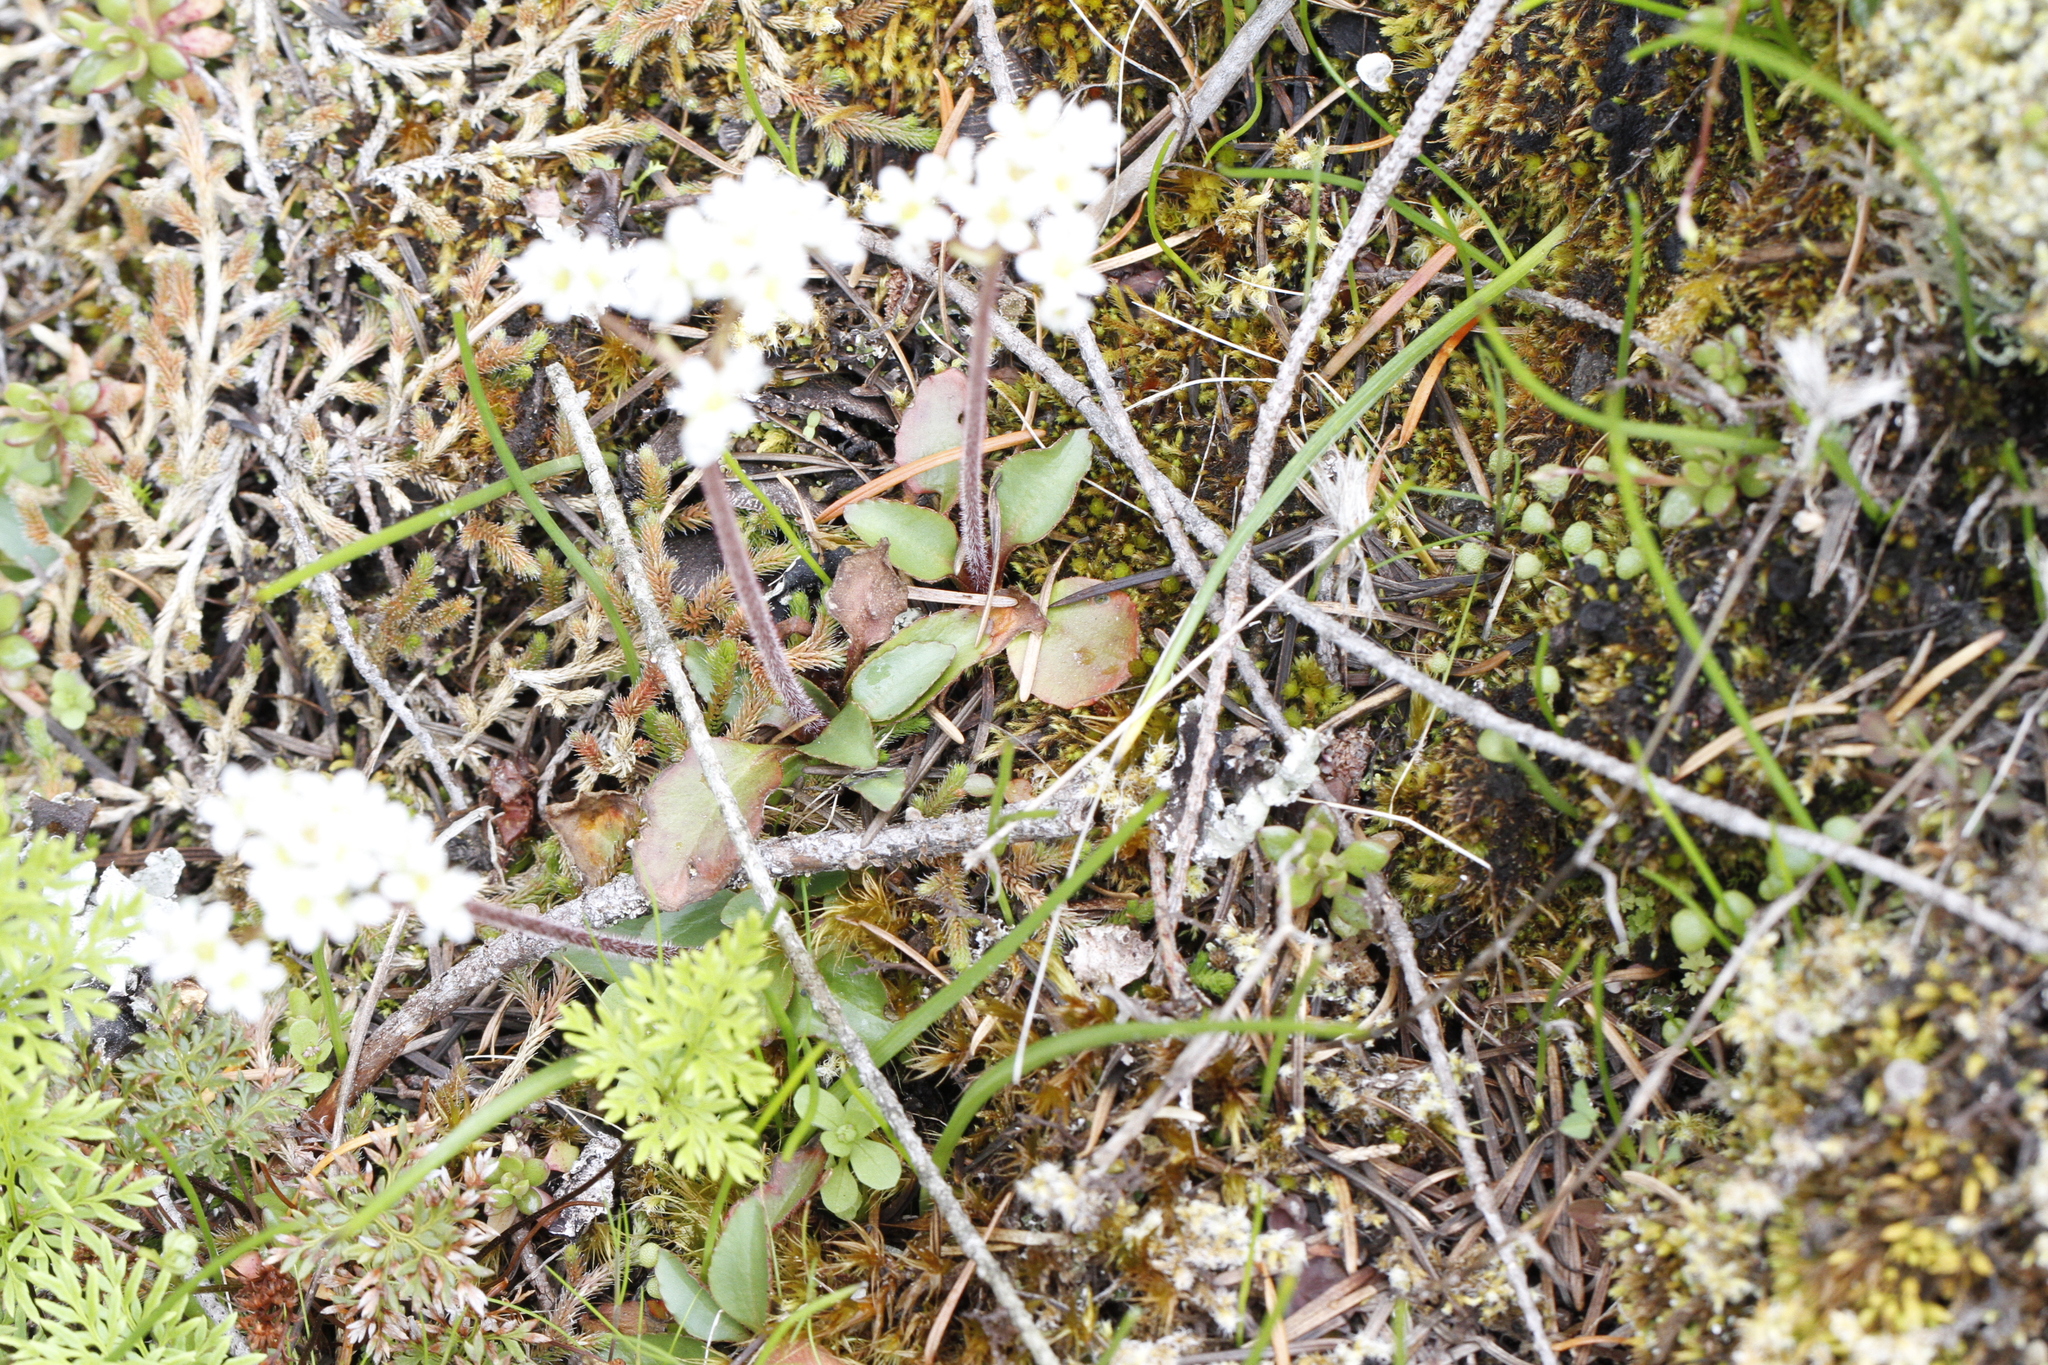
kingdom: Plantae
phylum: Tracheophyta
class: Magnoliopsida
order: Saxifragales
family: Saxifragaceae
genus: Micranthes
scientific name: Micranthes integrifolia
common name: Wholeleaf saxifrage
